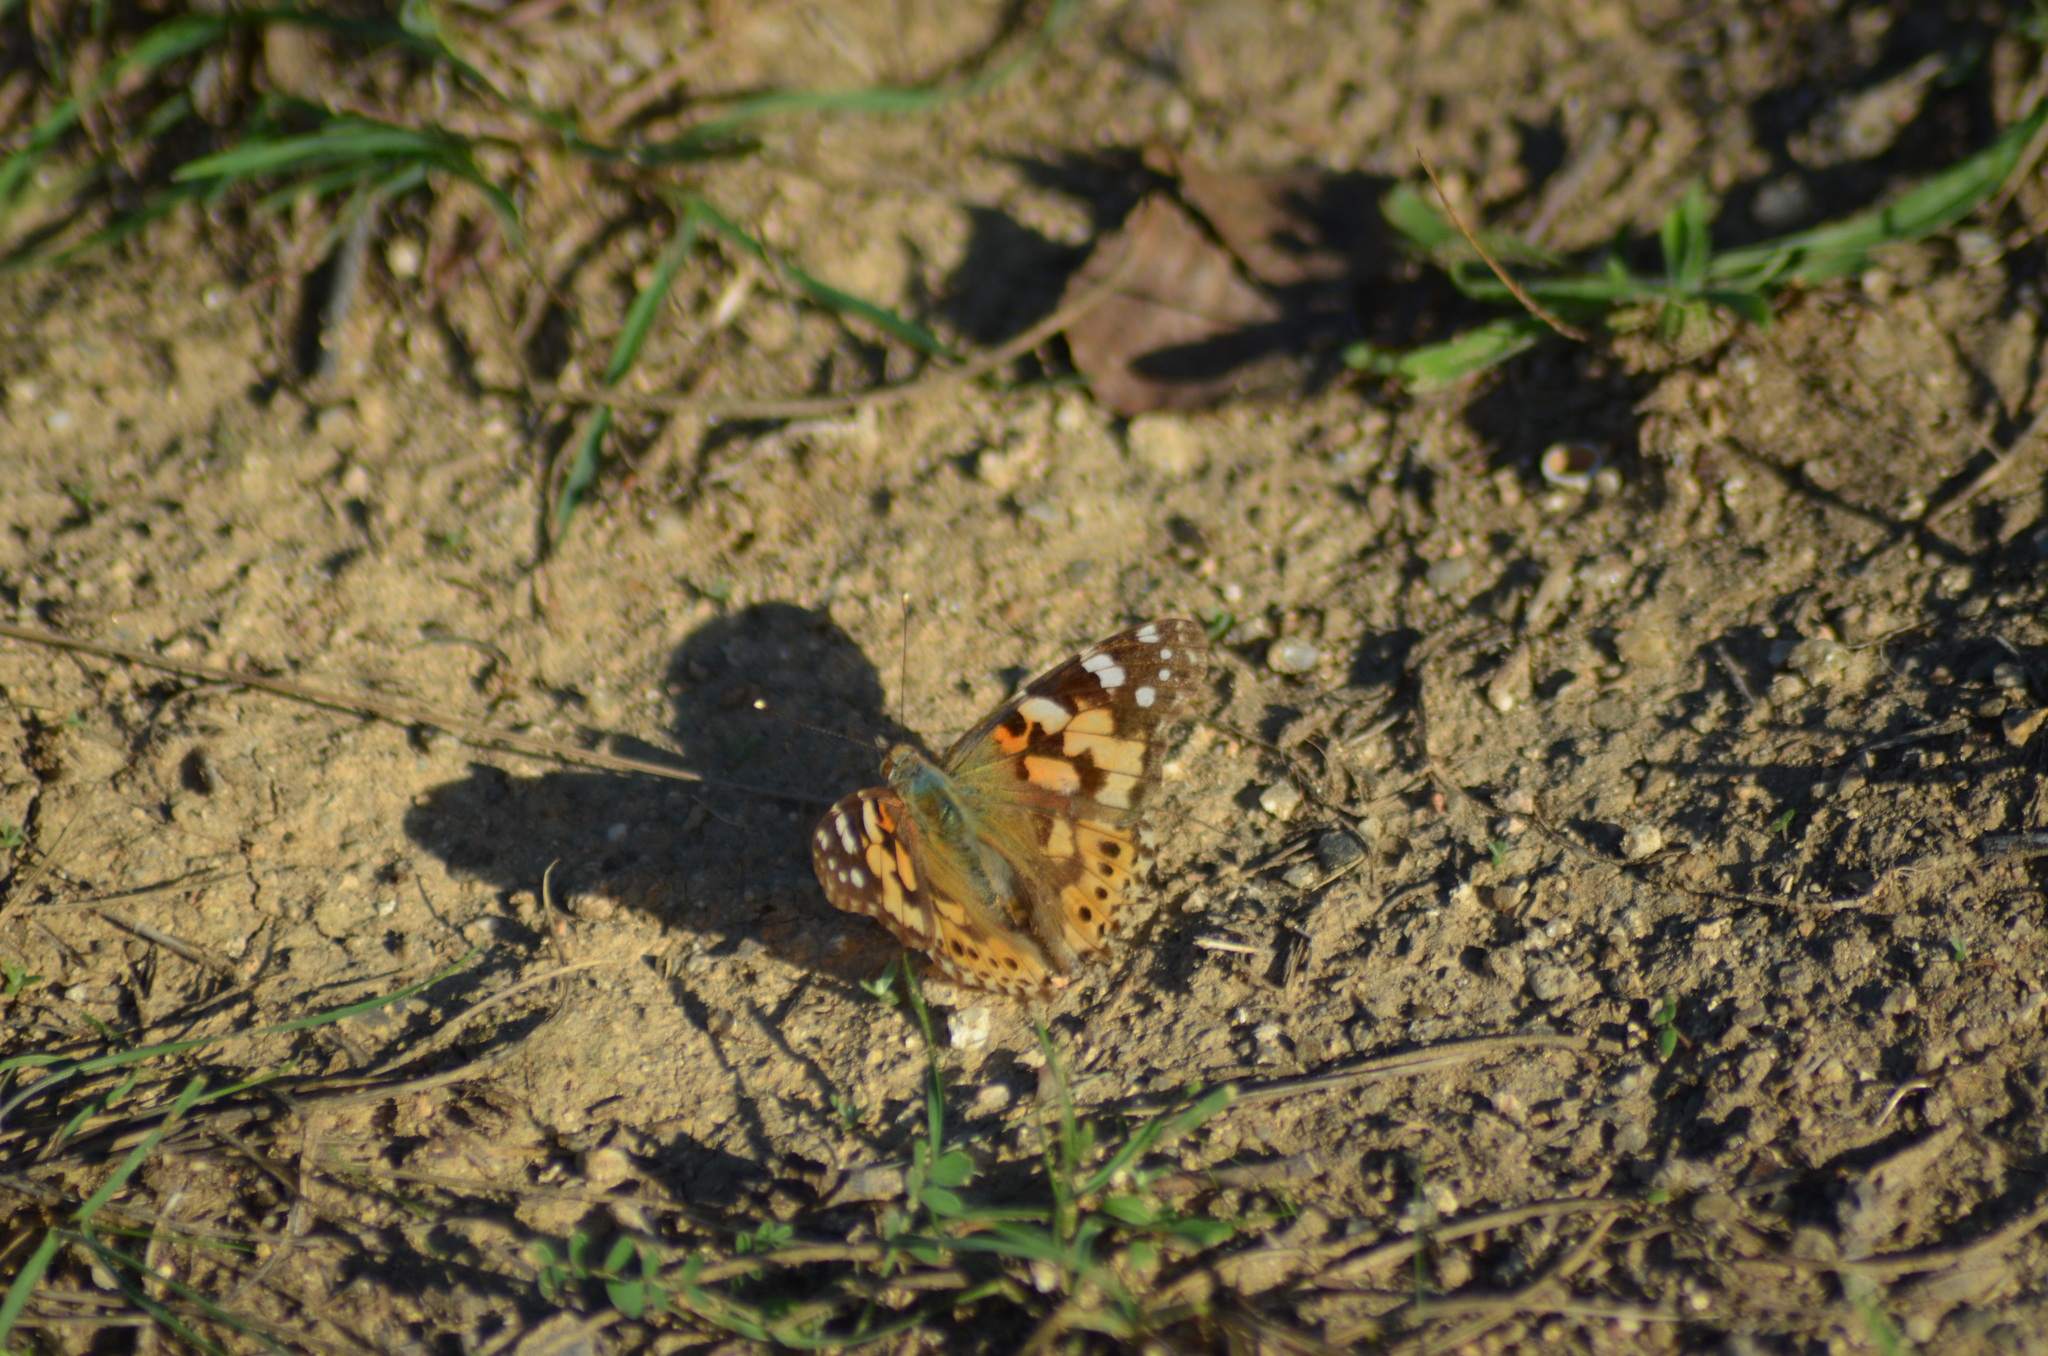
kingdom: Animalia
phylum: Arthropoda
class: Insecta
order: Lepidoptera
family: Nymphalidae
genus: Vanessa
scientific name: Vanessa cardui
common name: Painted lady
